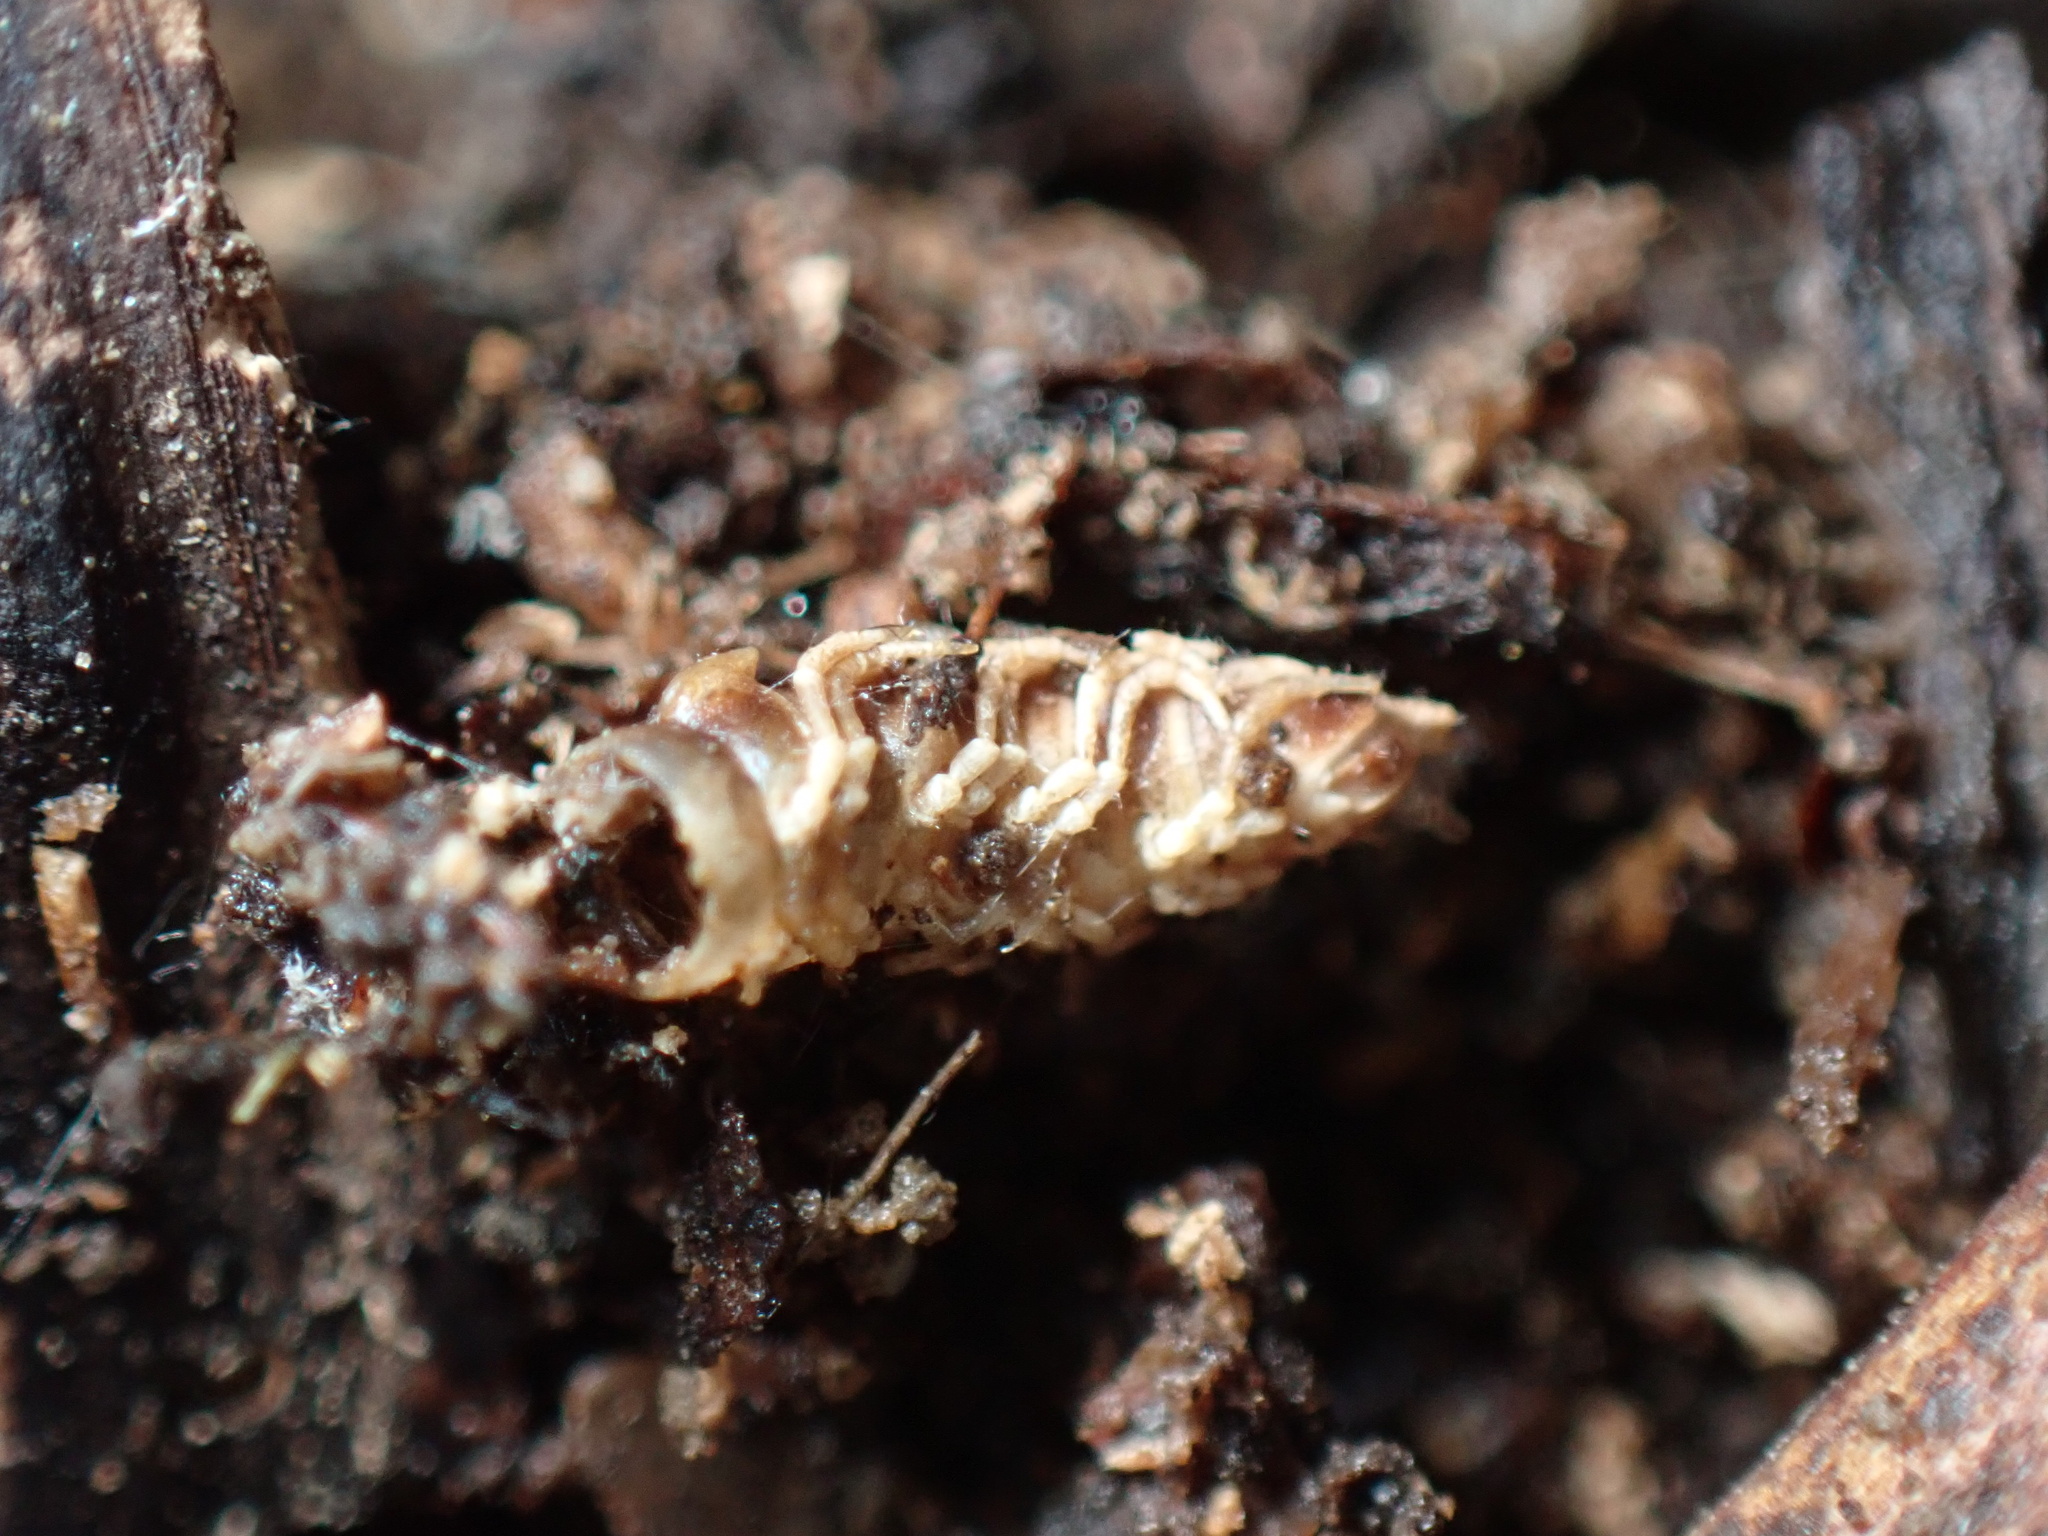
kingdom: Animalia
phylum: Arthropoda
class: Diplopoda
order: Polydesmida
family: Paradoxosomatidae
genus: Oxidus
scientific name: Oxidus gracilis
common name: Greenhouse millipede
